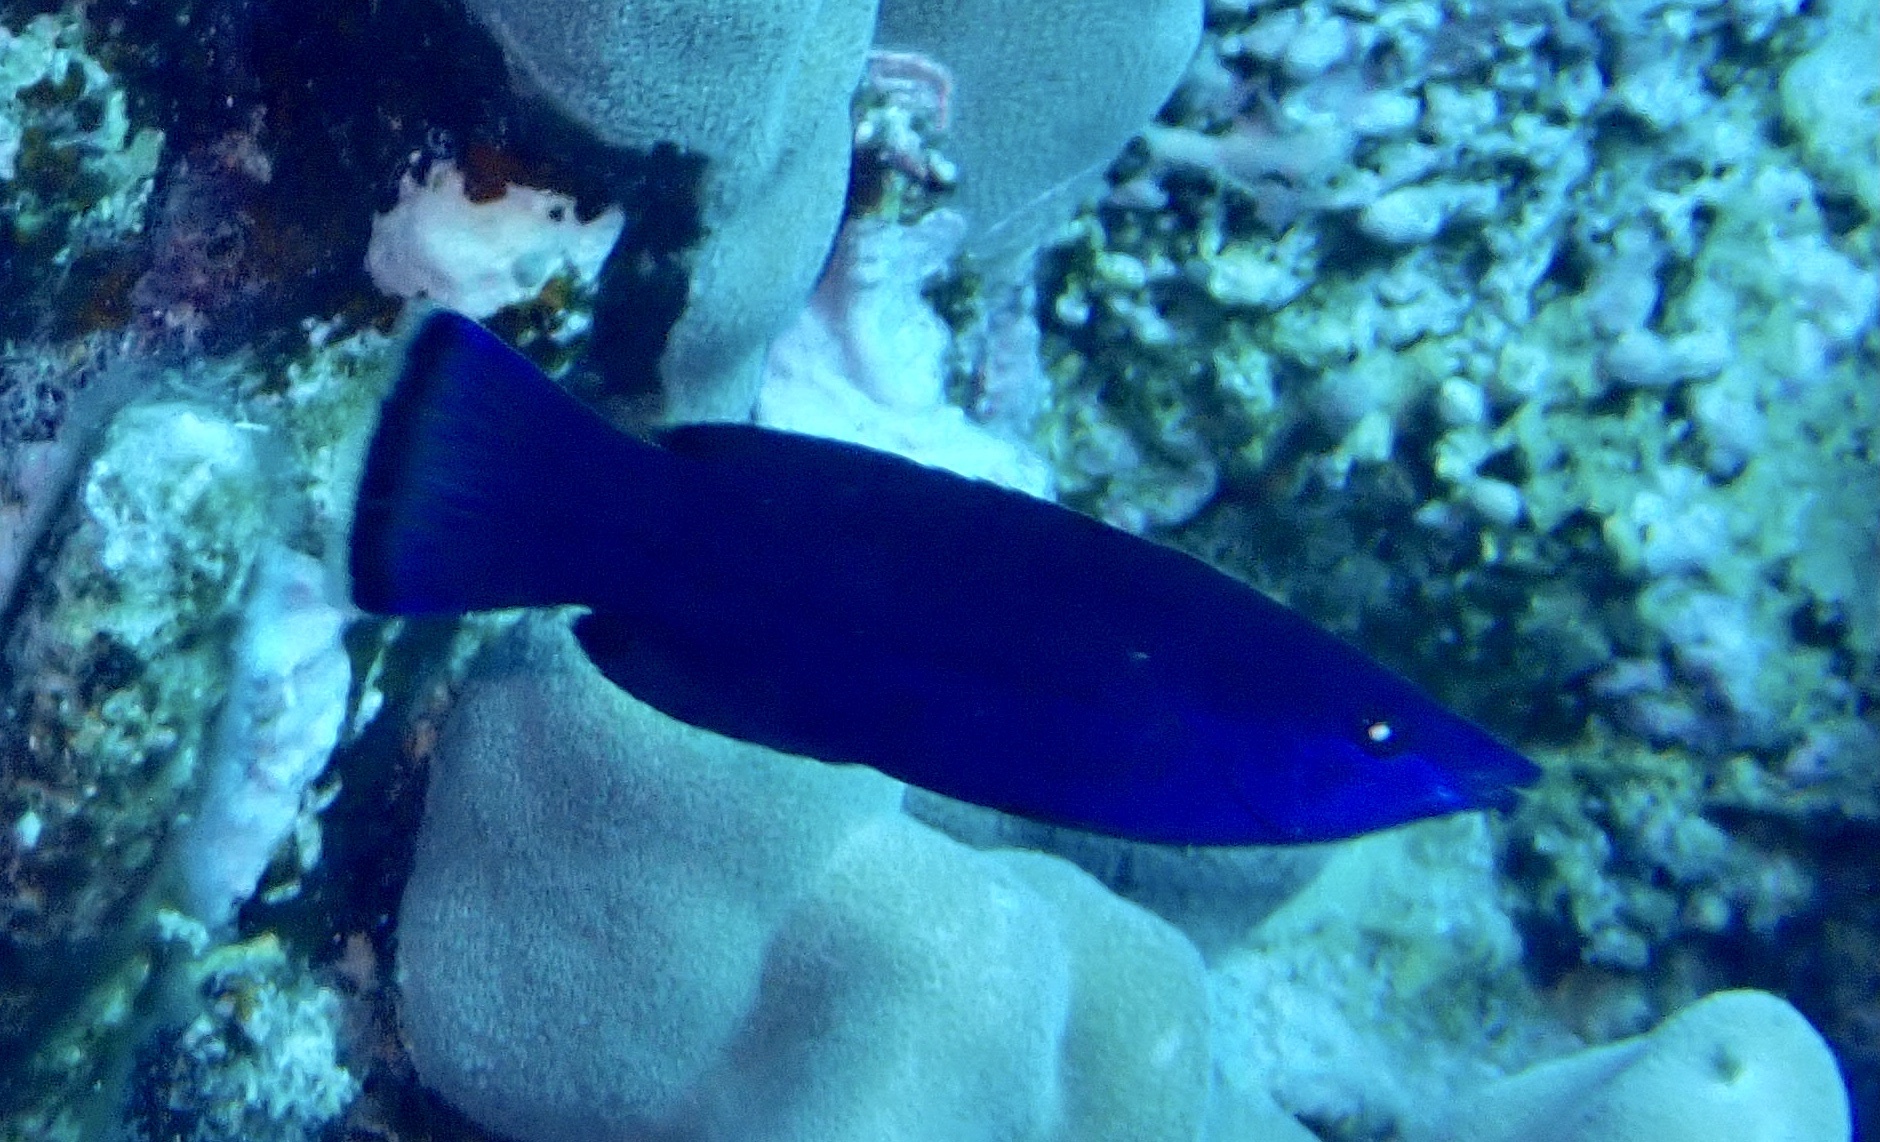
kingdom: Animalia
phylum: Chordata
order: Perciformes
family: Labridae
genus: Larabicus
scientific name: Larabicus quadrilineatus
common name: Fourline wrasse
